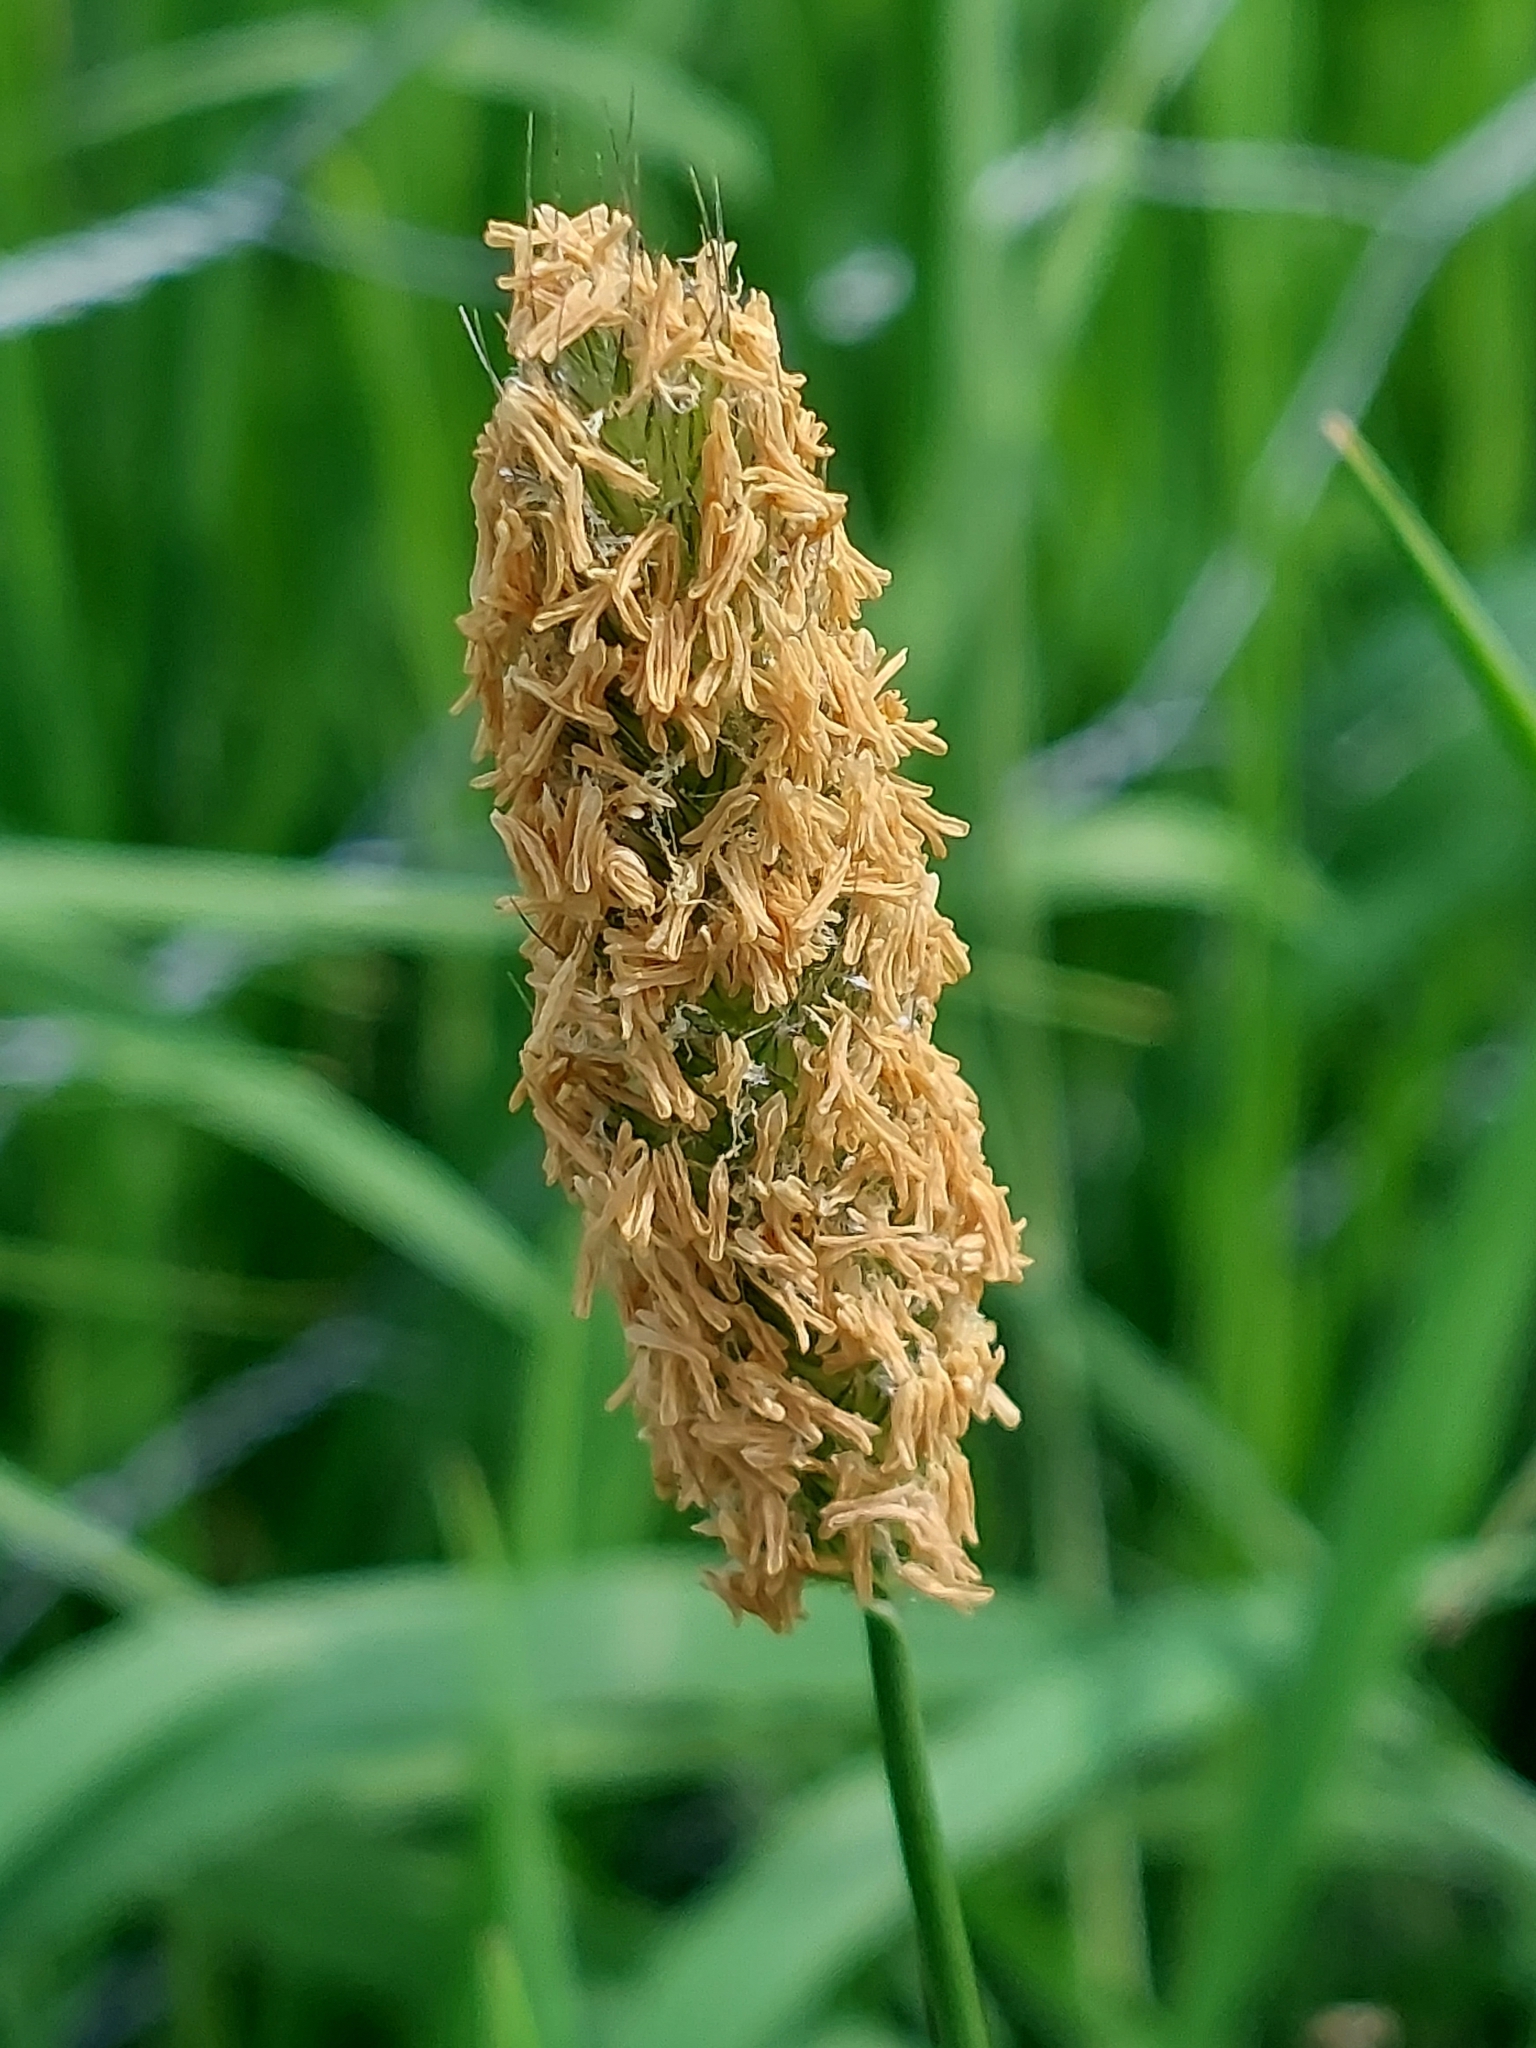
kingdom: Plantae
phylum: Tracheophyta
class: Liliopsida
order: Poales
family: Poaceae
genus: Alopecurus
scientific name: Alopecurus pratensis
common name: Meadow foxtail
